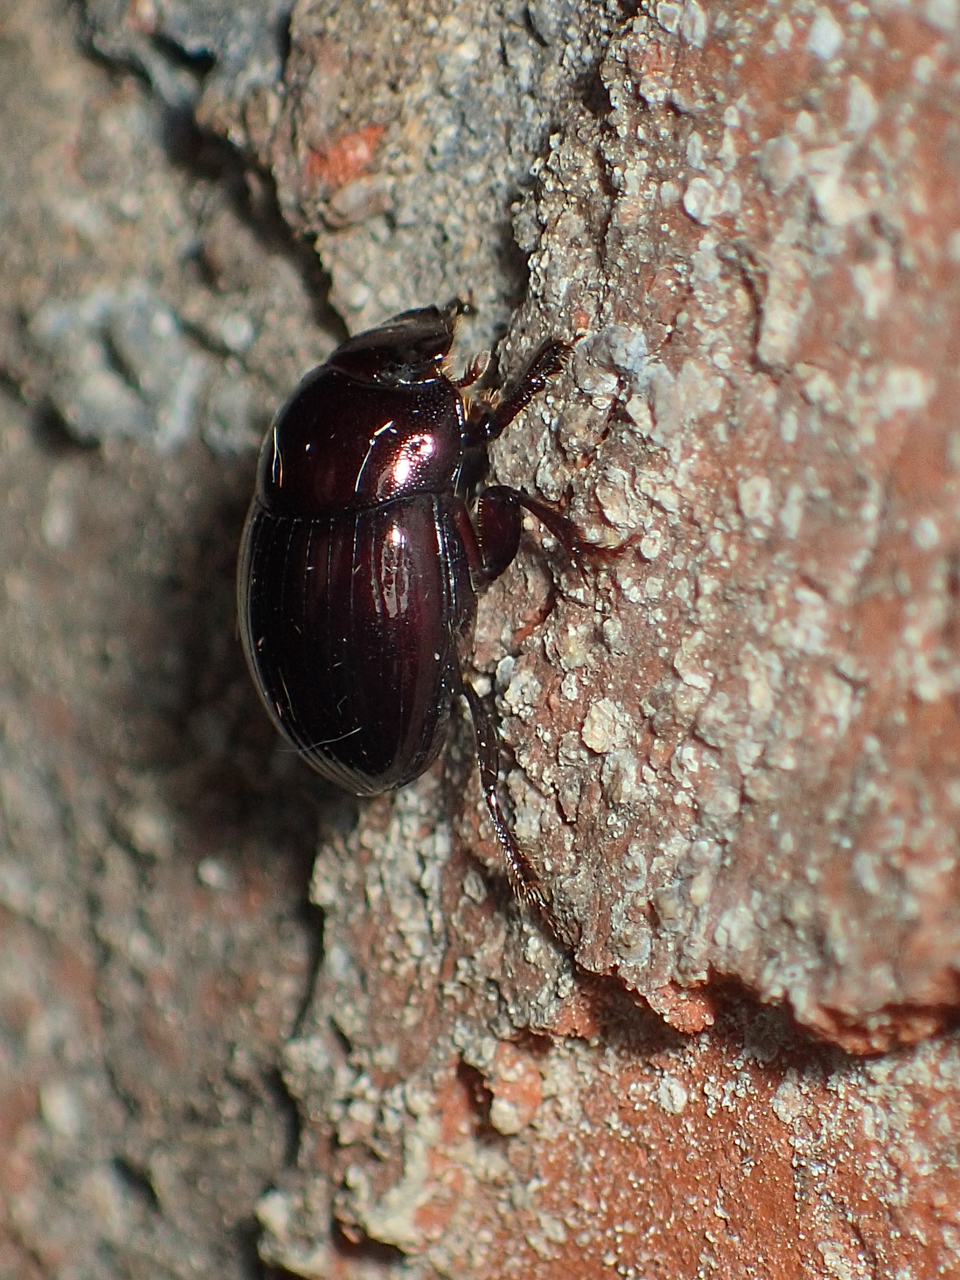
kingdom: Animalia
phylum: Arthropoda
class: Insecta
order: Coleoptera
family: Scarabaeidae
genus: Ateuchus
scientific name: Ateuchus histeroides
